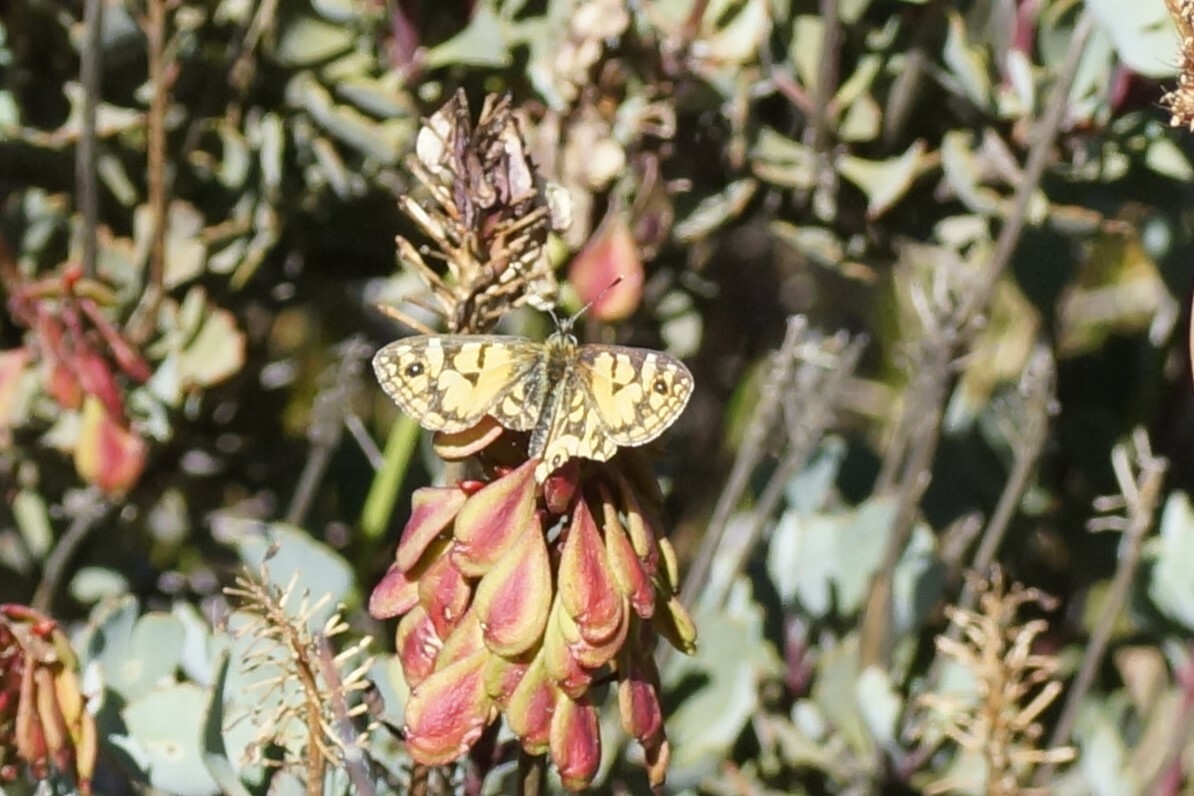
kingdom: Animalia
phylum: Arthropoda
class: Insecta
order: Lepidoptera
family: Nymphalidae
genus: Oreixenica
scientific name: Oreixenica lathoniella
